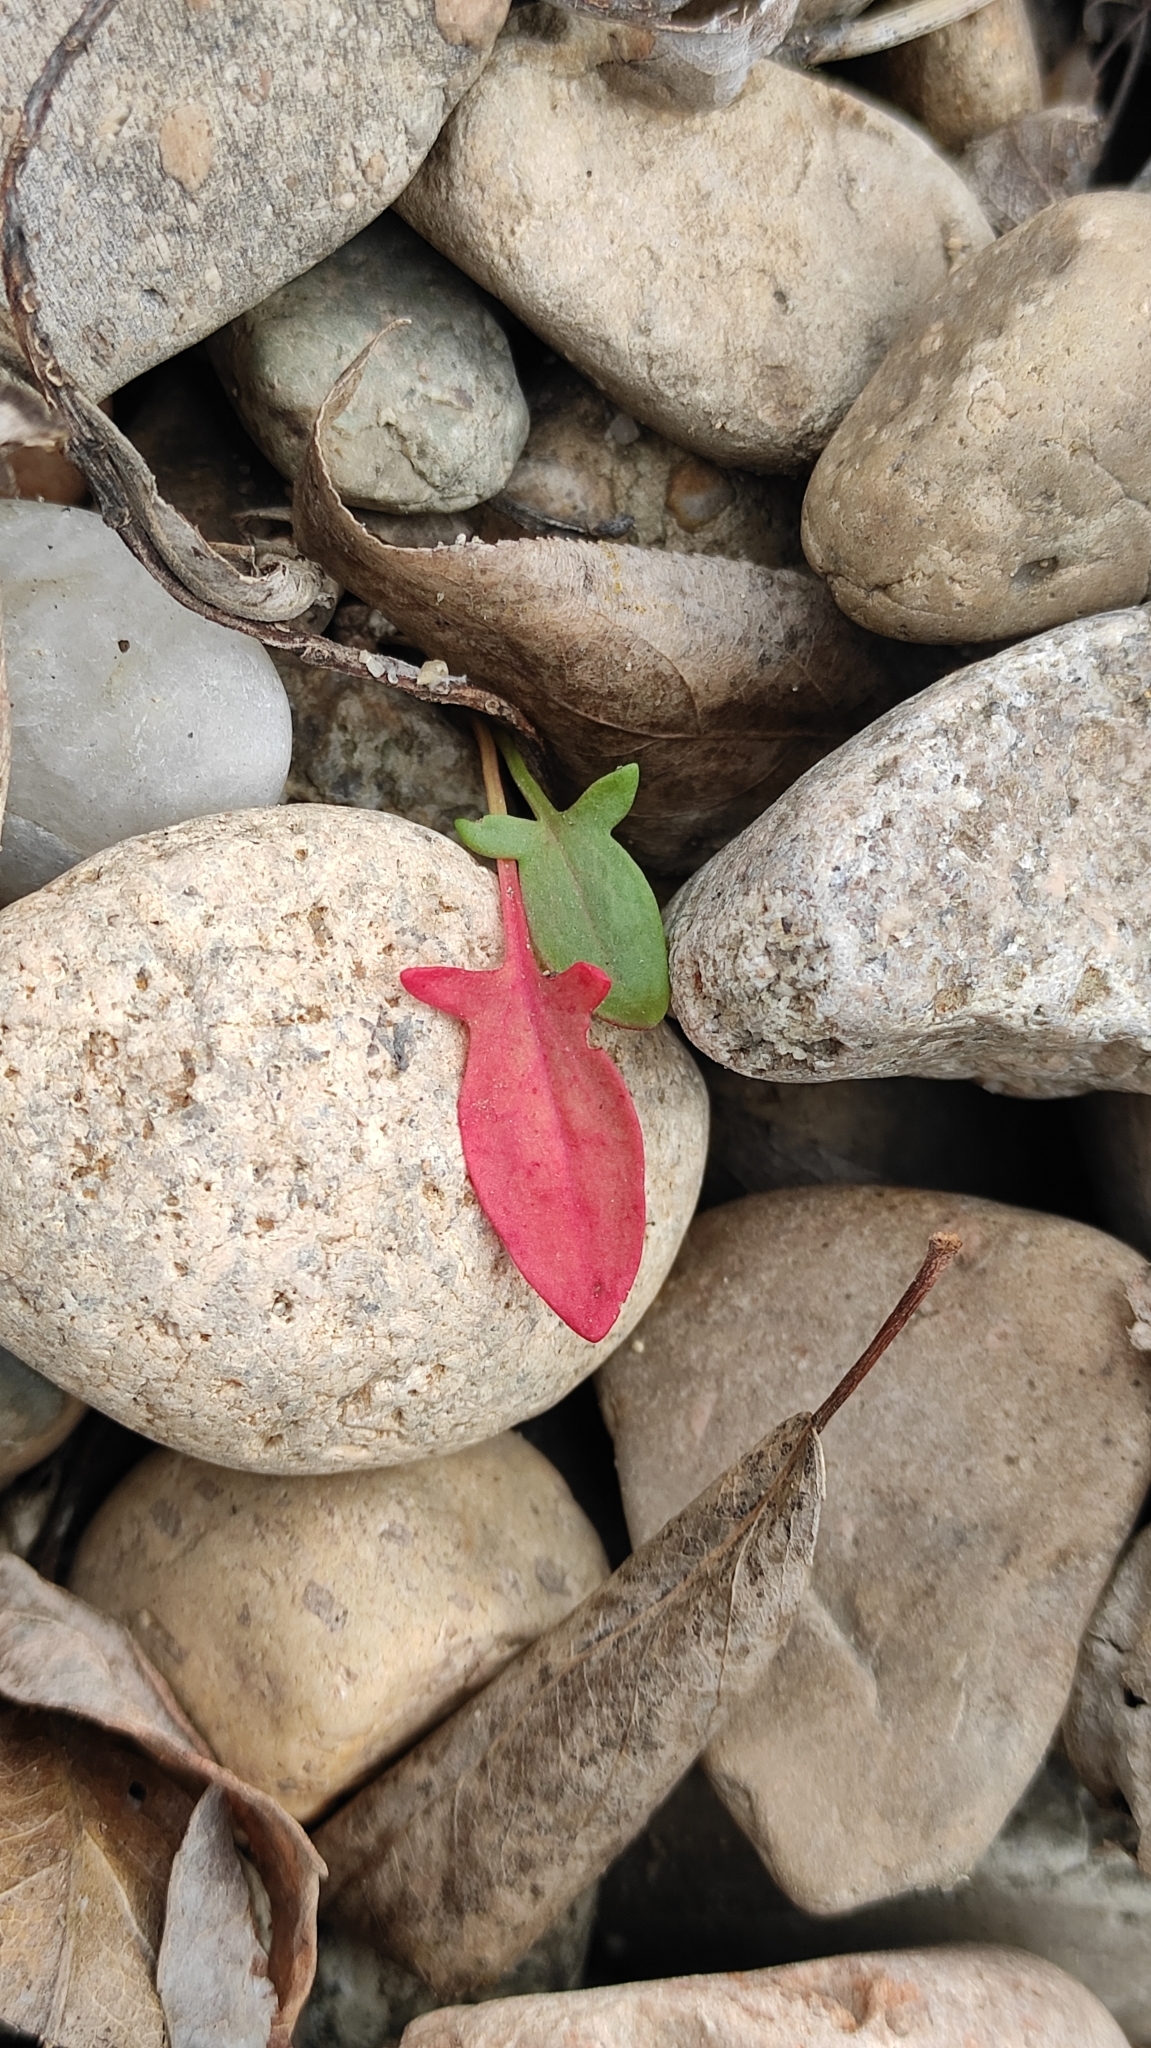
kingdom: Plantae
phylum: Tracheophyta
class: Magnoliopsida
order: Caryophyllales
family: Polygonaceae
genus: Rumex
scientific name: Rumex acetosella
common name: Common sheep sorrel
